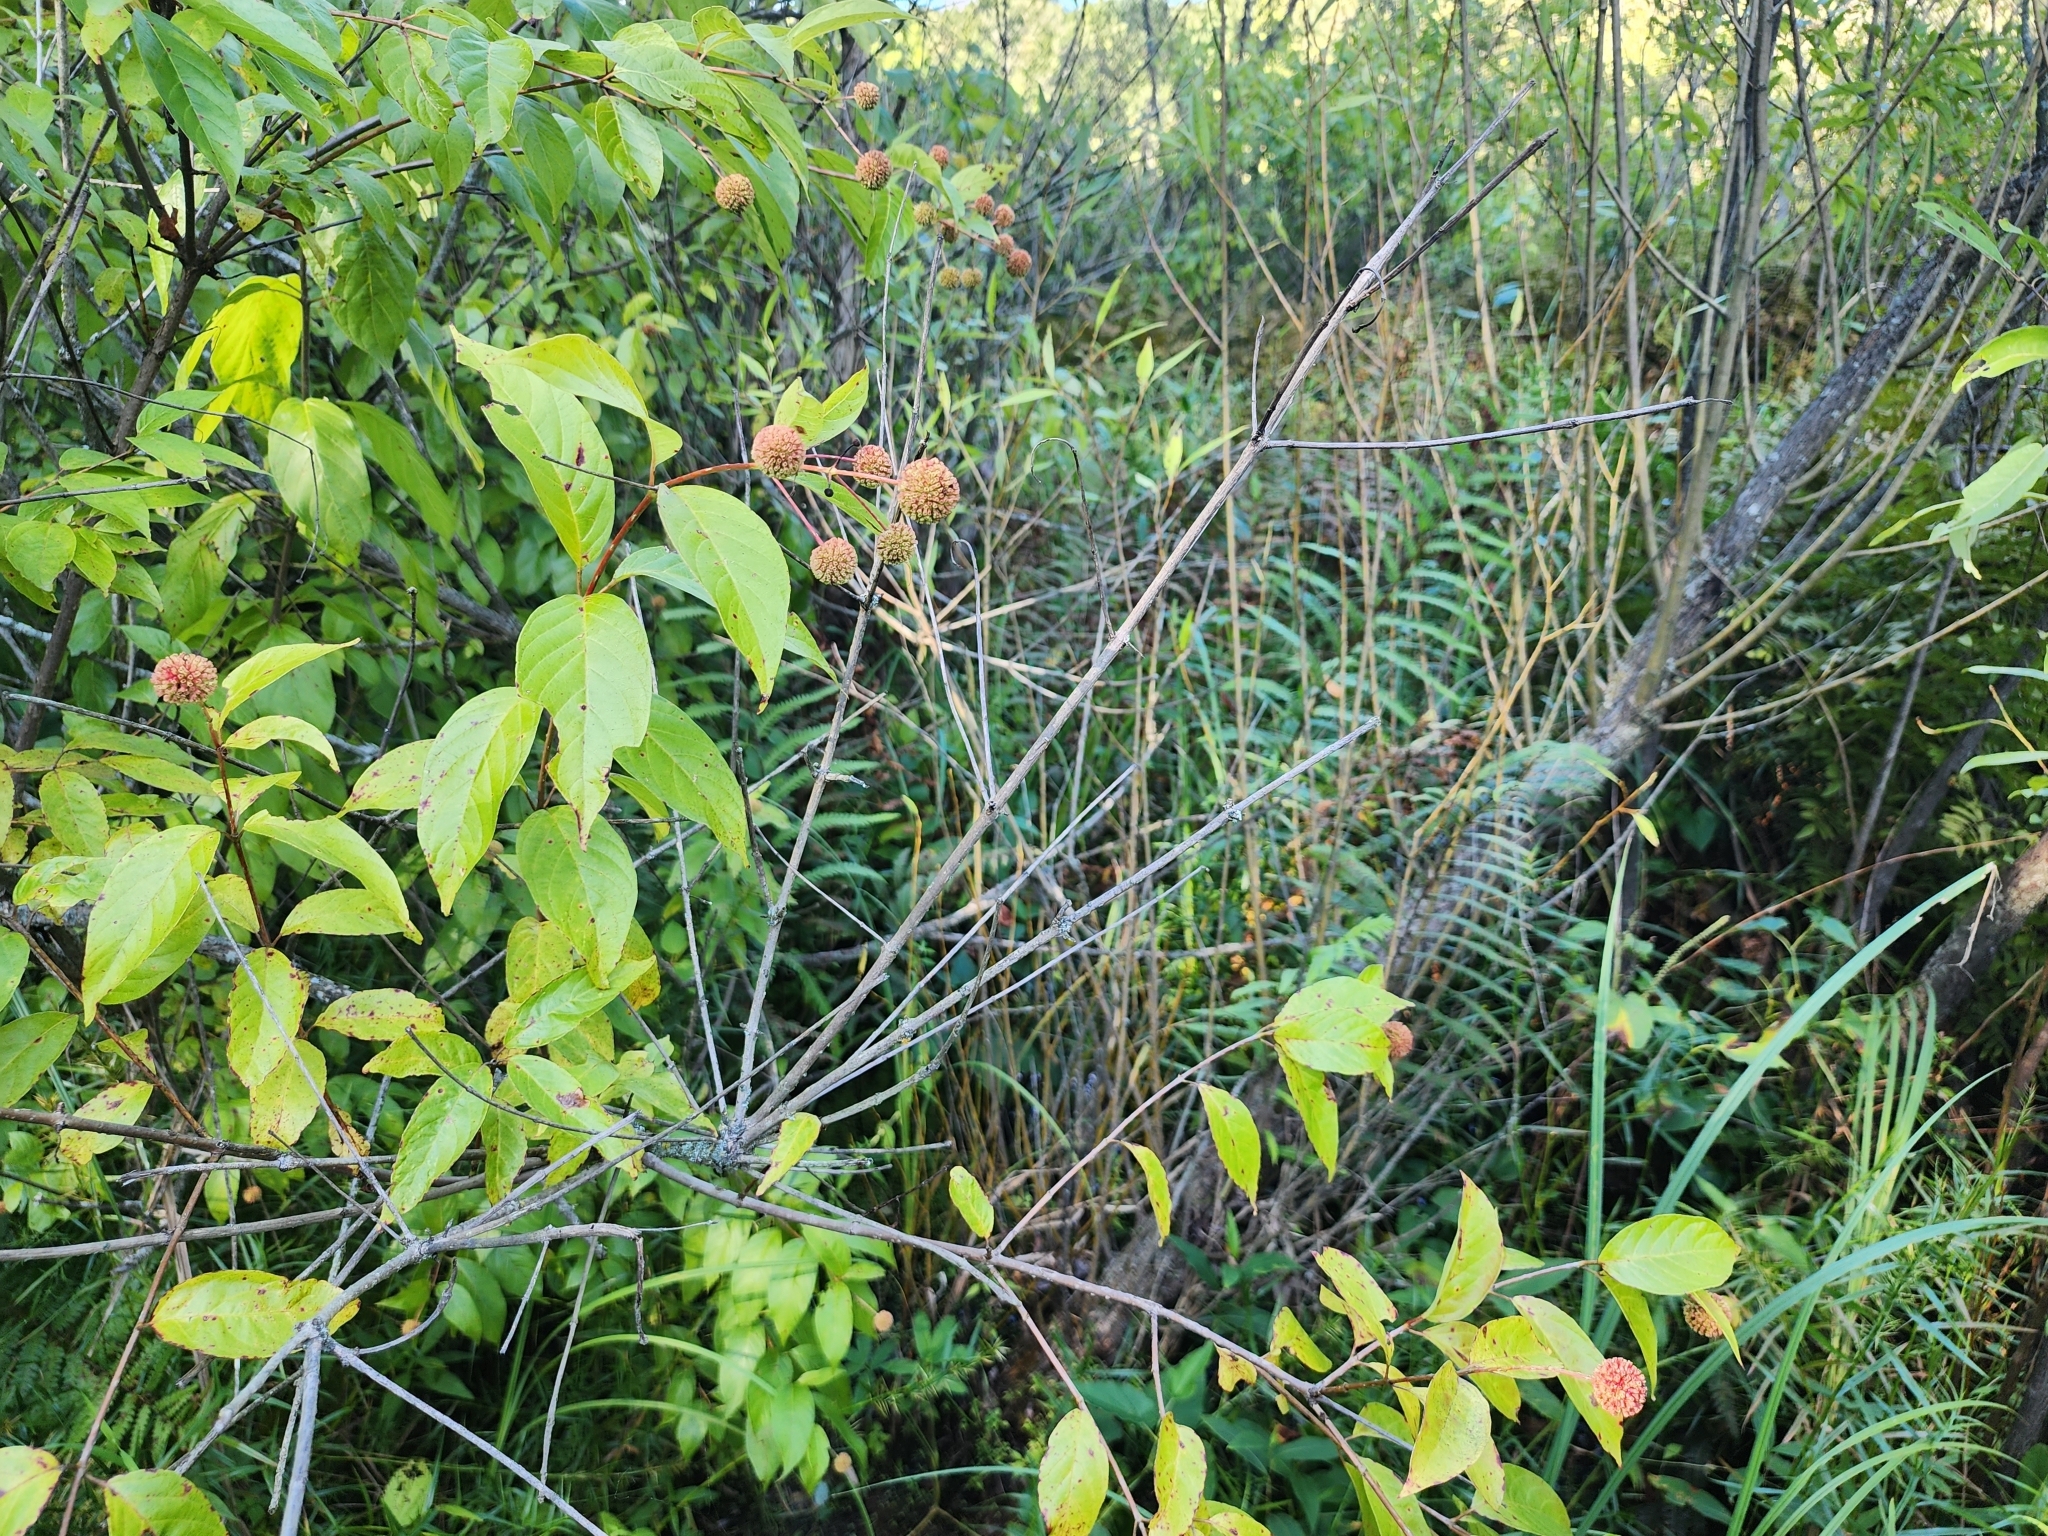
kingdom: Plantae
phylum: Tracheophyta
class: Magnoliopsida
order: Gentianales
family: Rubiaceae
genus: Cephalanthus
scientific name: Cephalanthus occidentalis
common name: Button-willow
